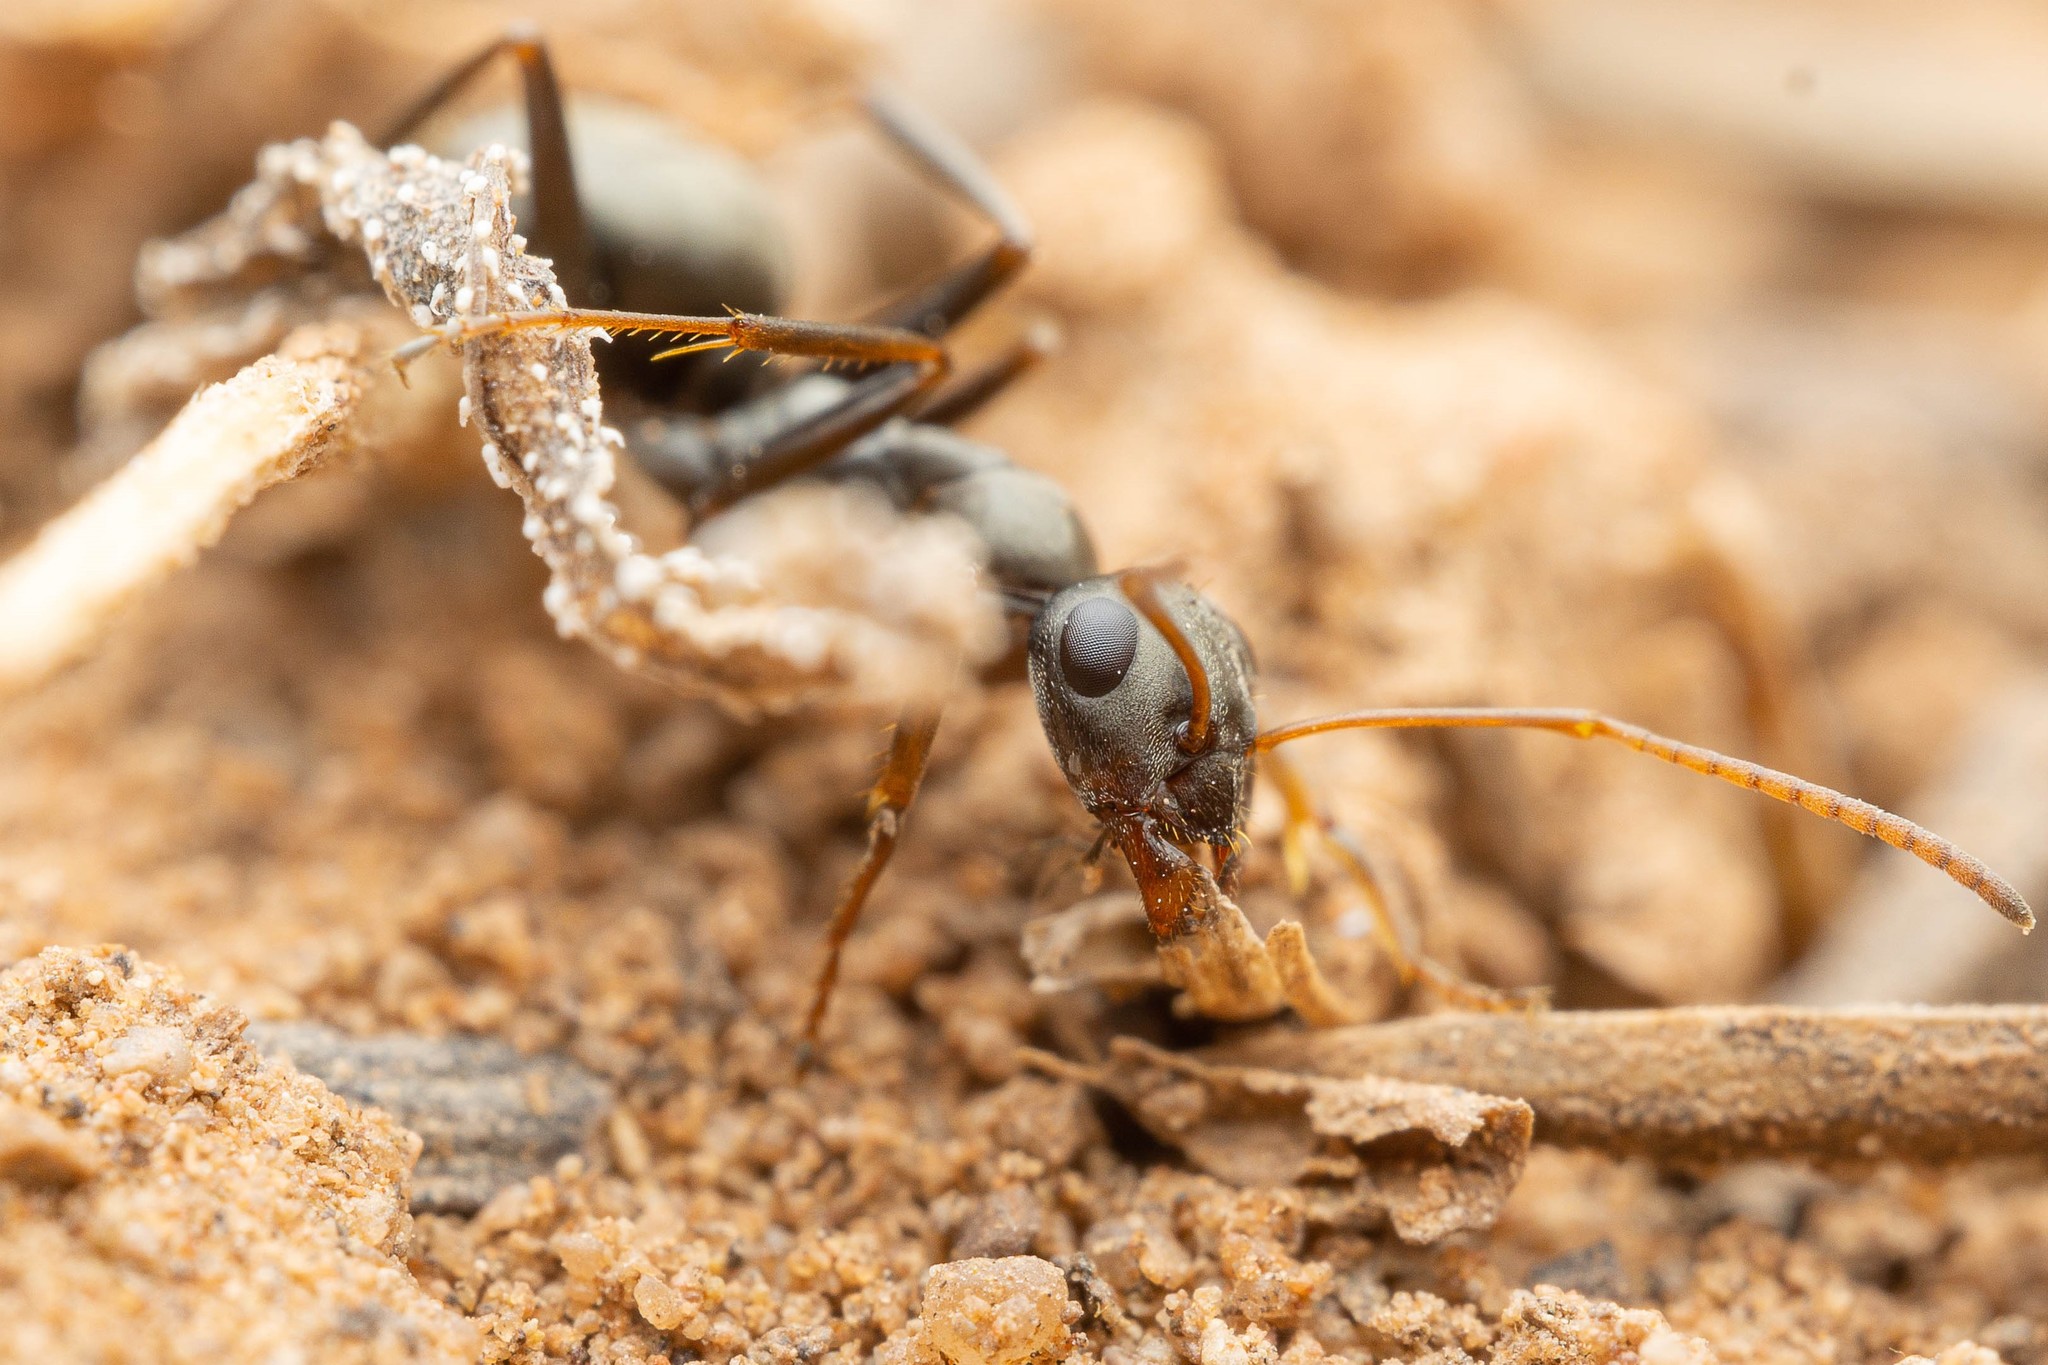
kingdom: Animalia
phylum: Arthropoda
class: Insecta
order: Hymenoptera
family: Formicidae
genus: Formica
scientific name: Formica
